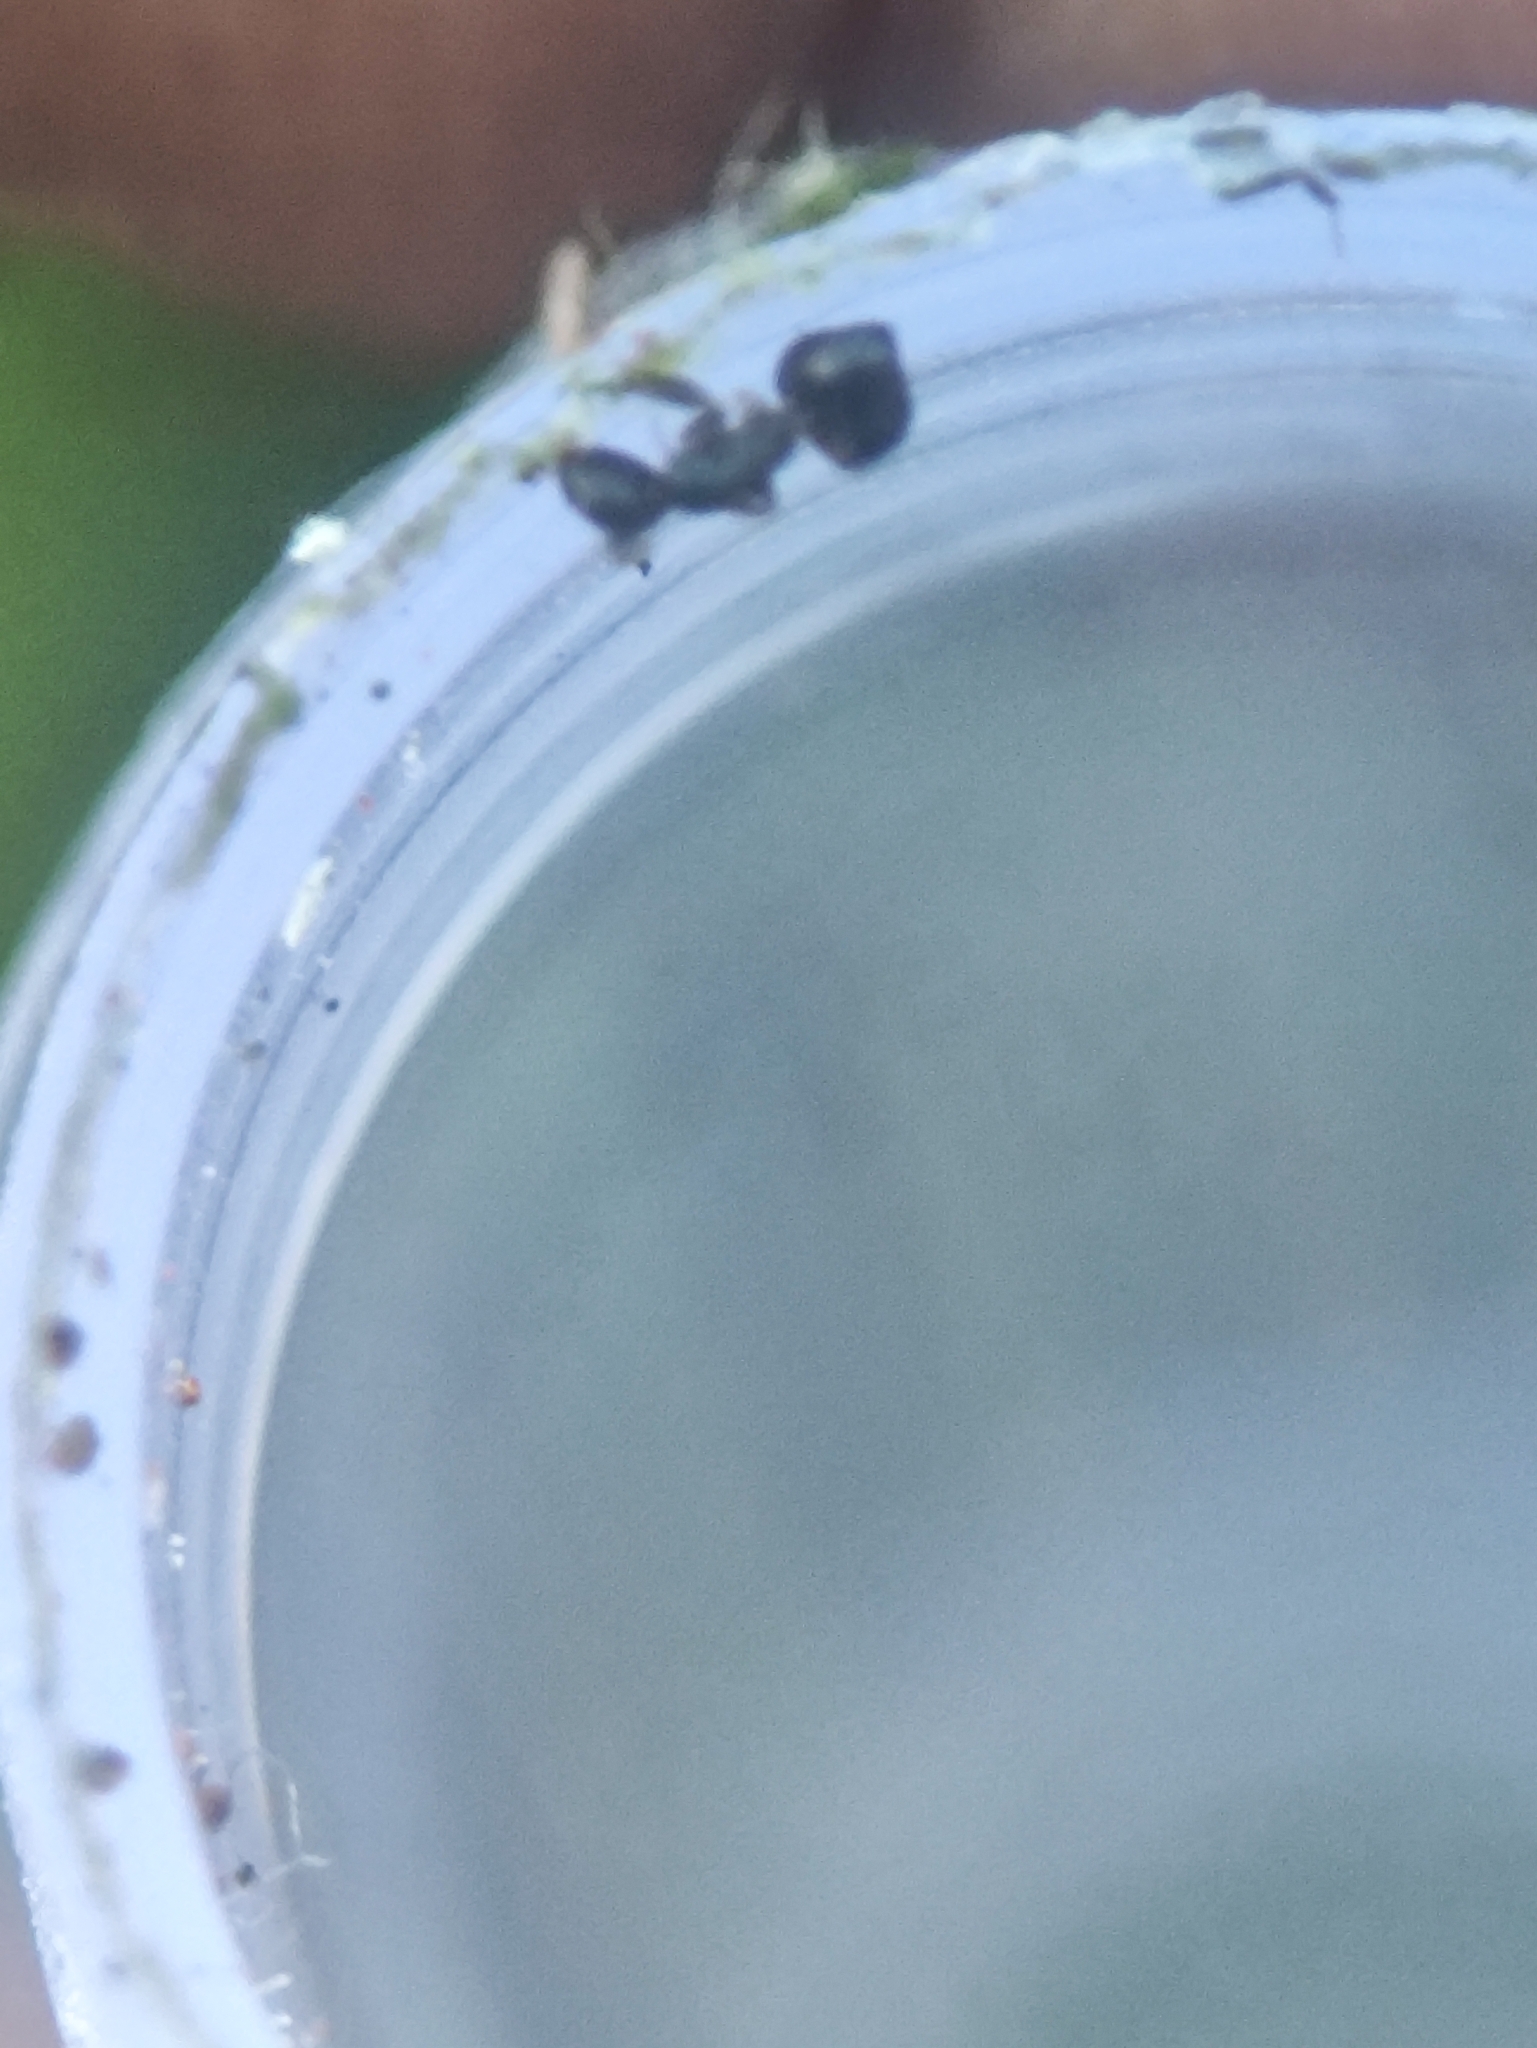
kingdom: Animalia
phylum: Arthropoda
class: Insecta
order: Hymenoptera
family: Formicidae
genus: Monomorium
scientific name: Monomorium carbonarium
